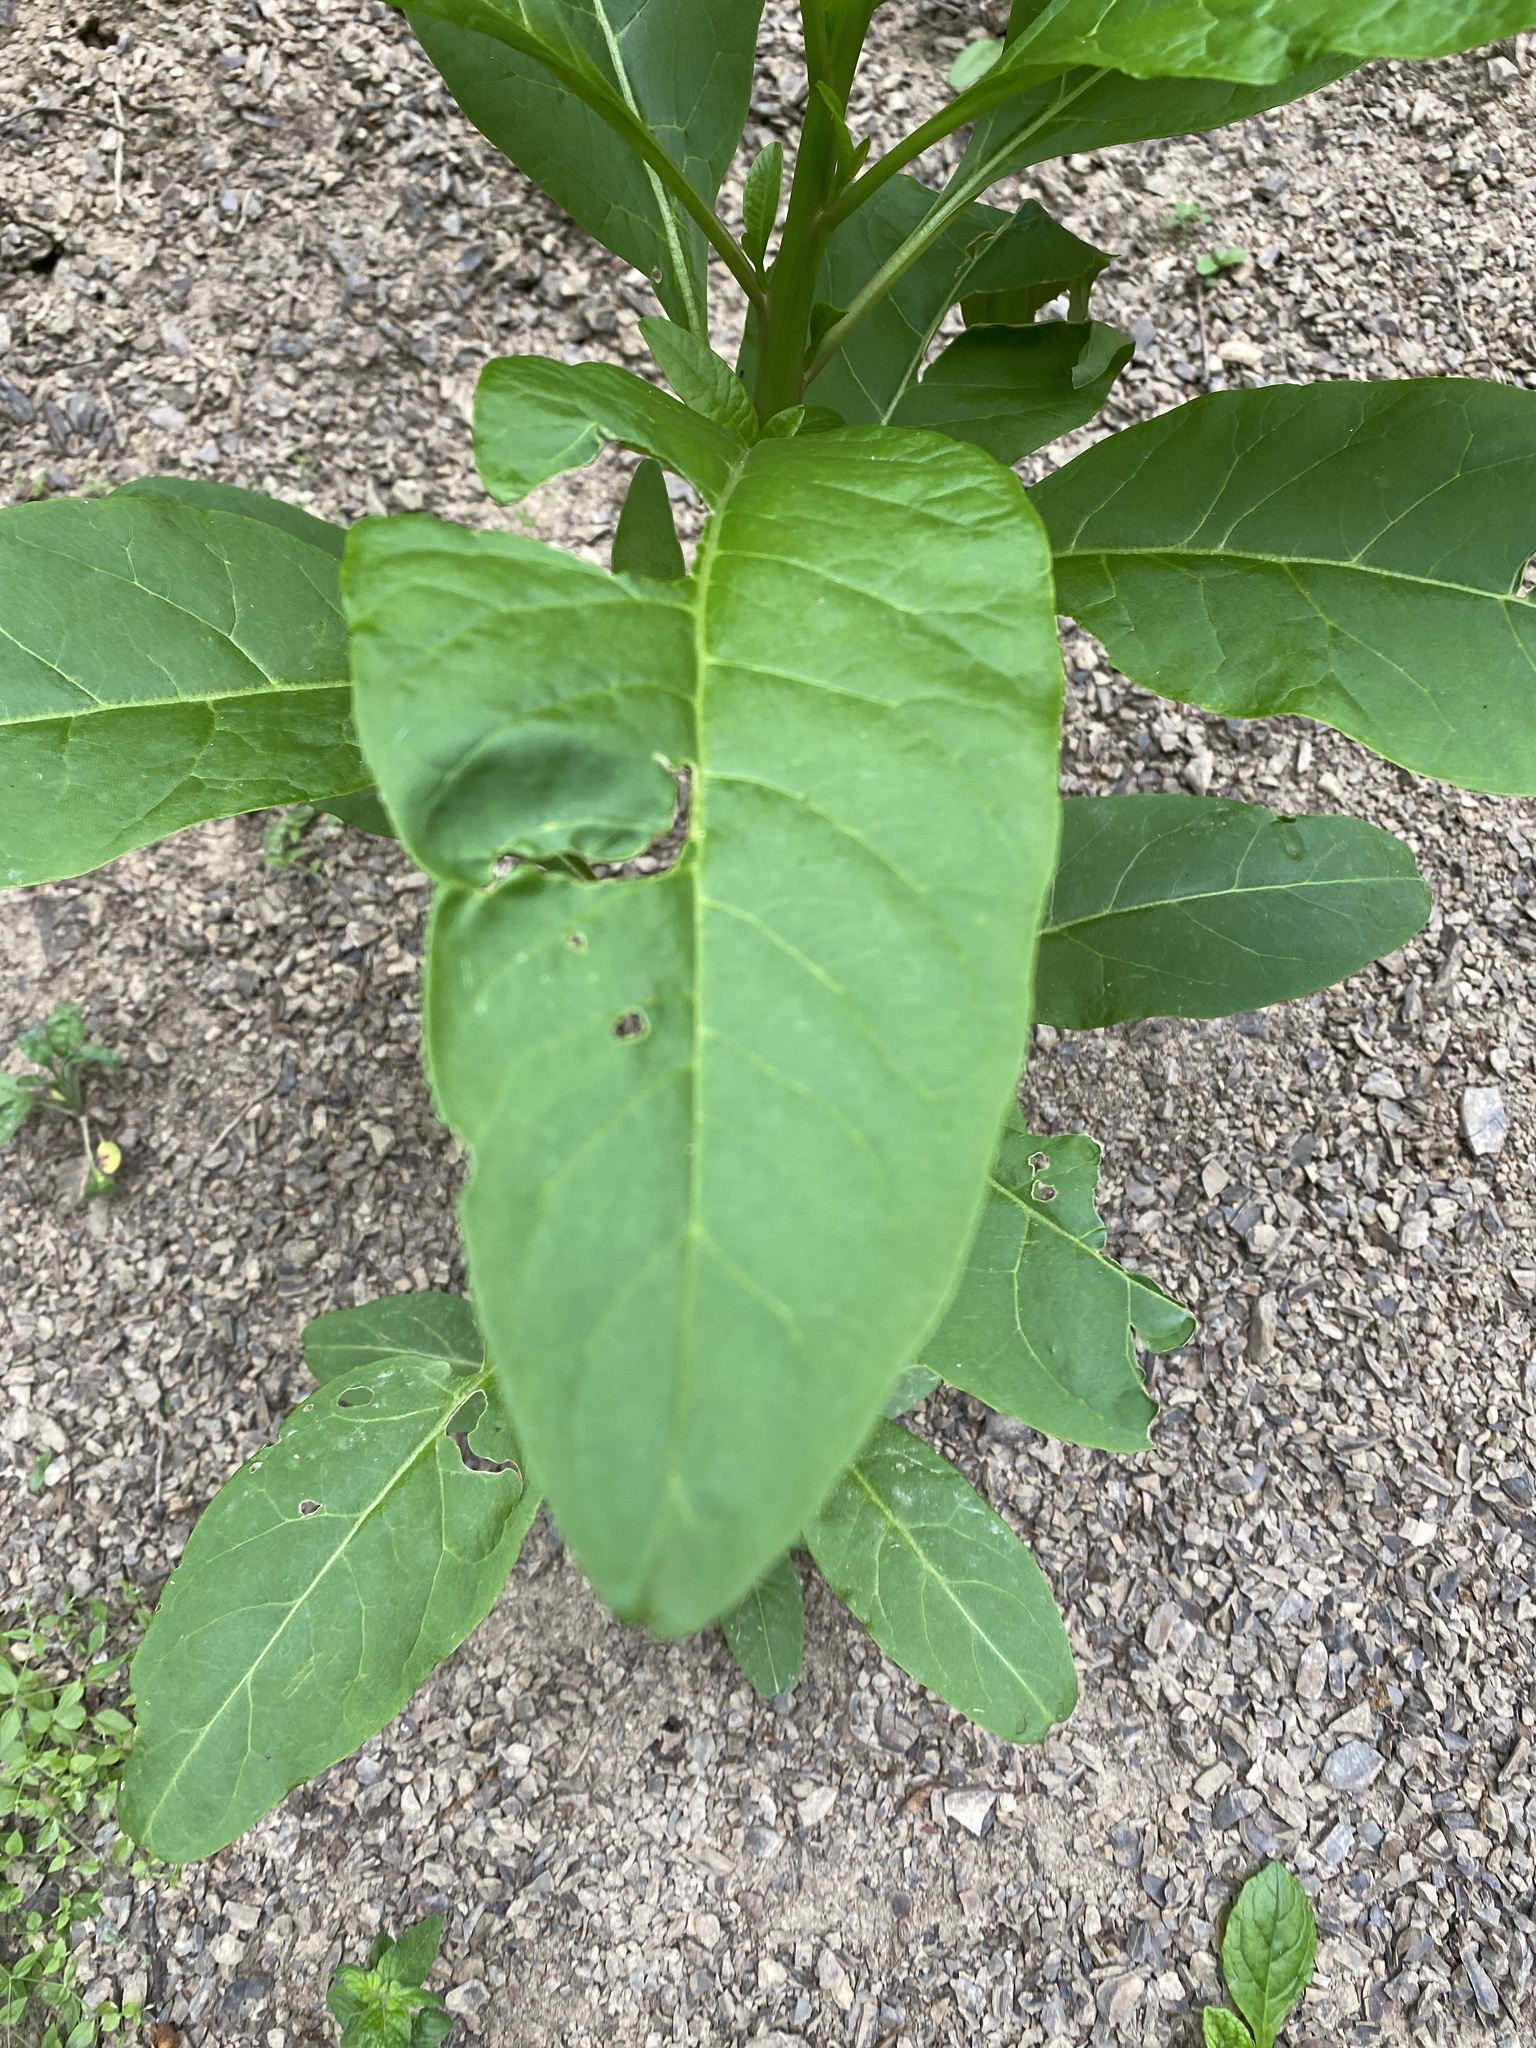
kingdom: Plantae
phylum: Tracheophyta
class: Magnoliopsida
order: Caryophyllales
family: Phytolaccaceae
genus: Phytolacca
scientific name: Phytolacca americana
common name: American pokeweed
